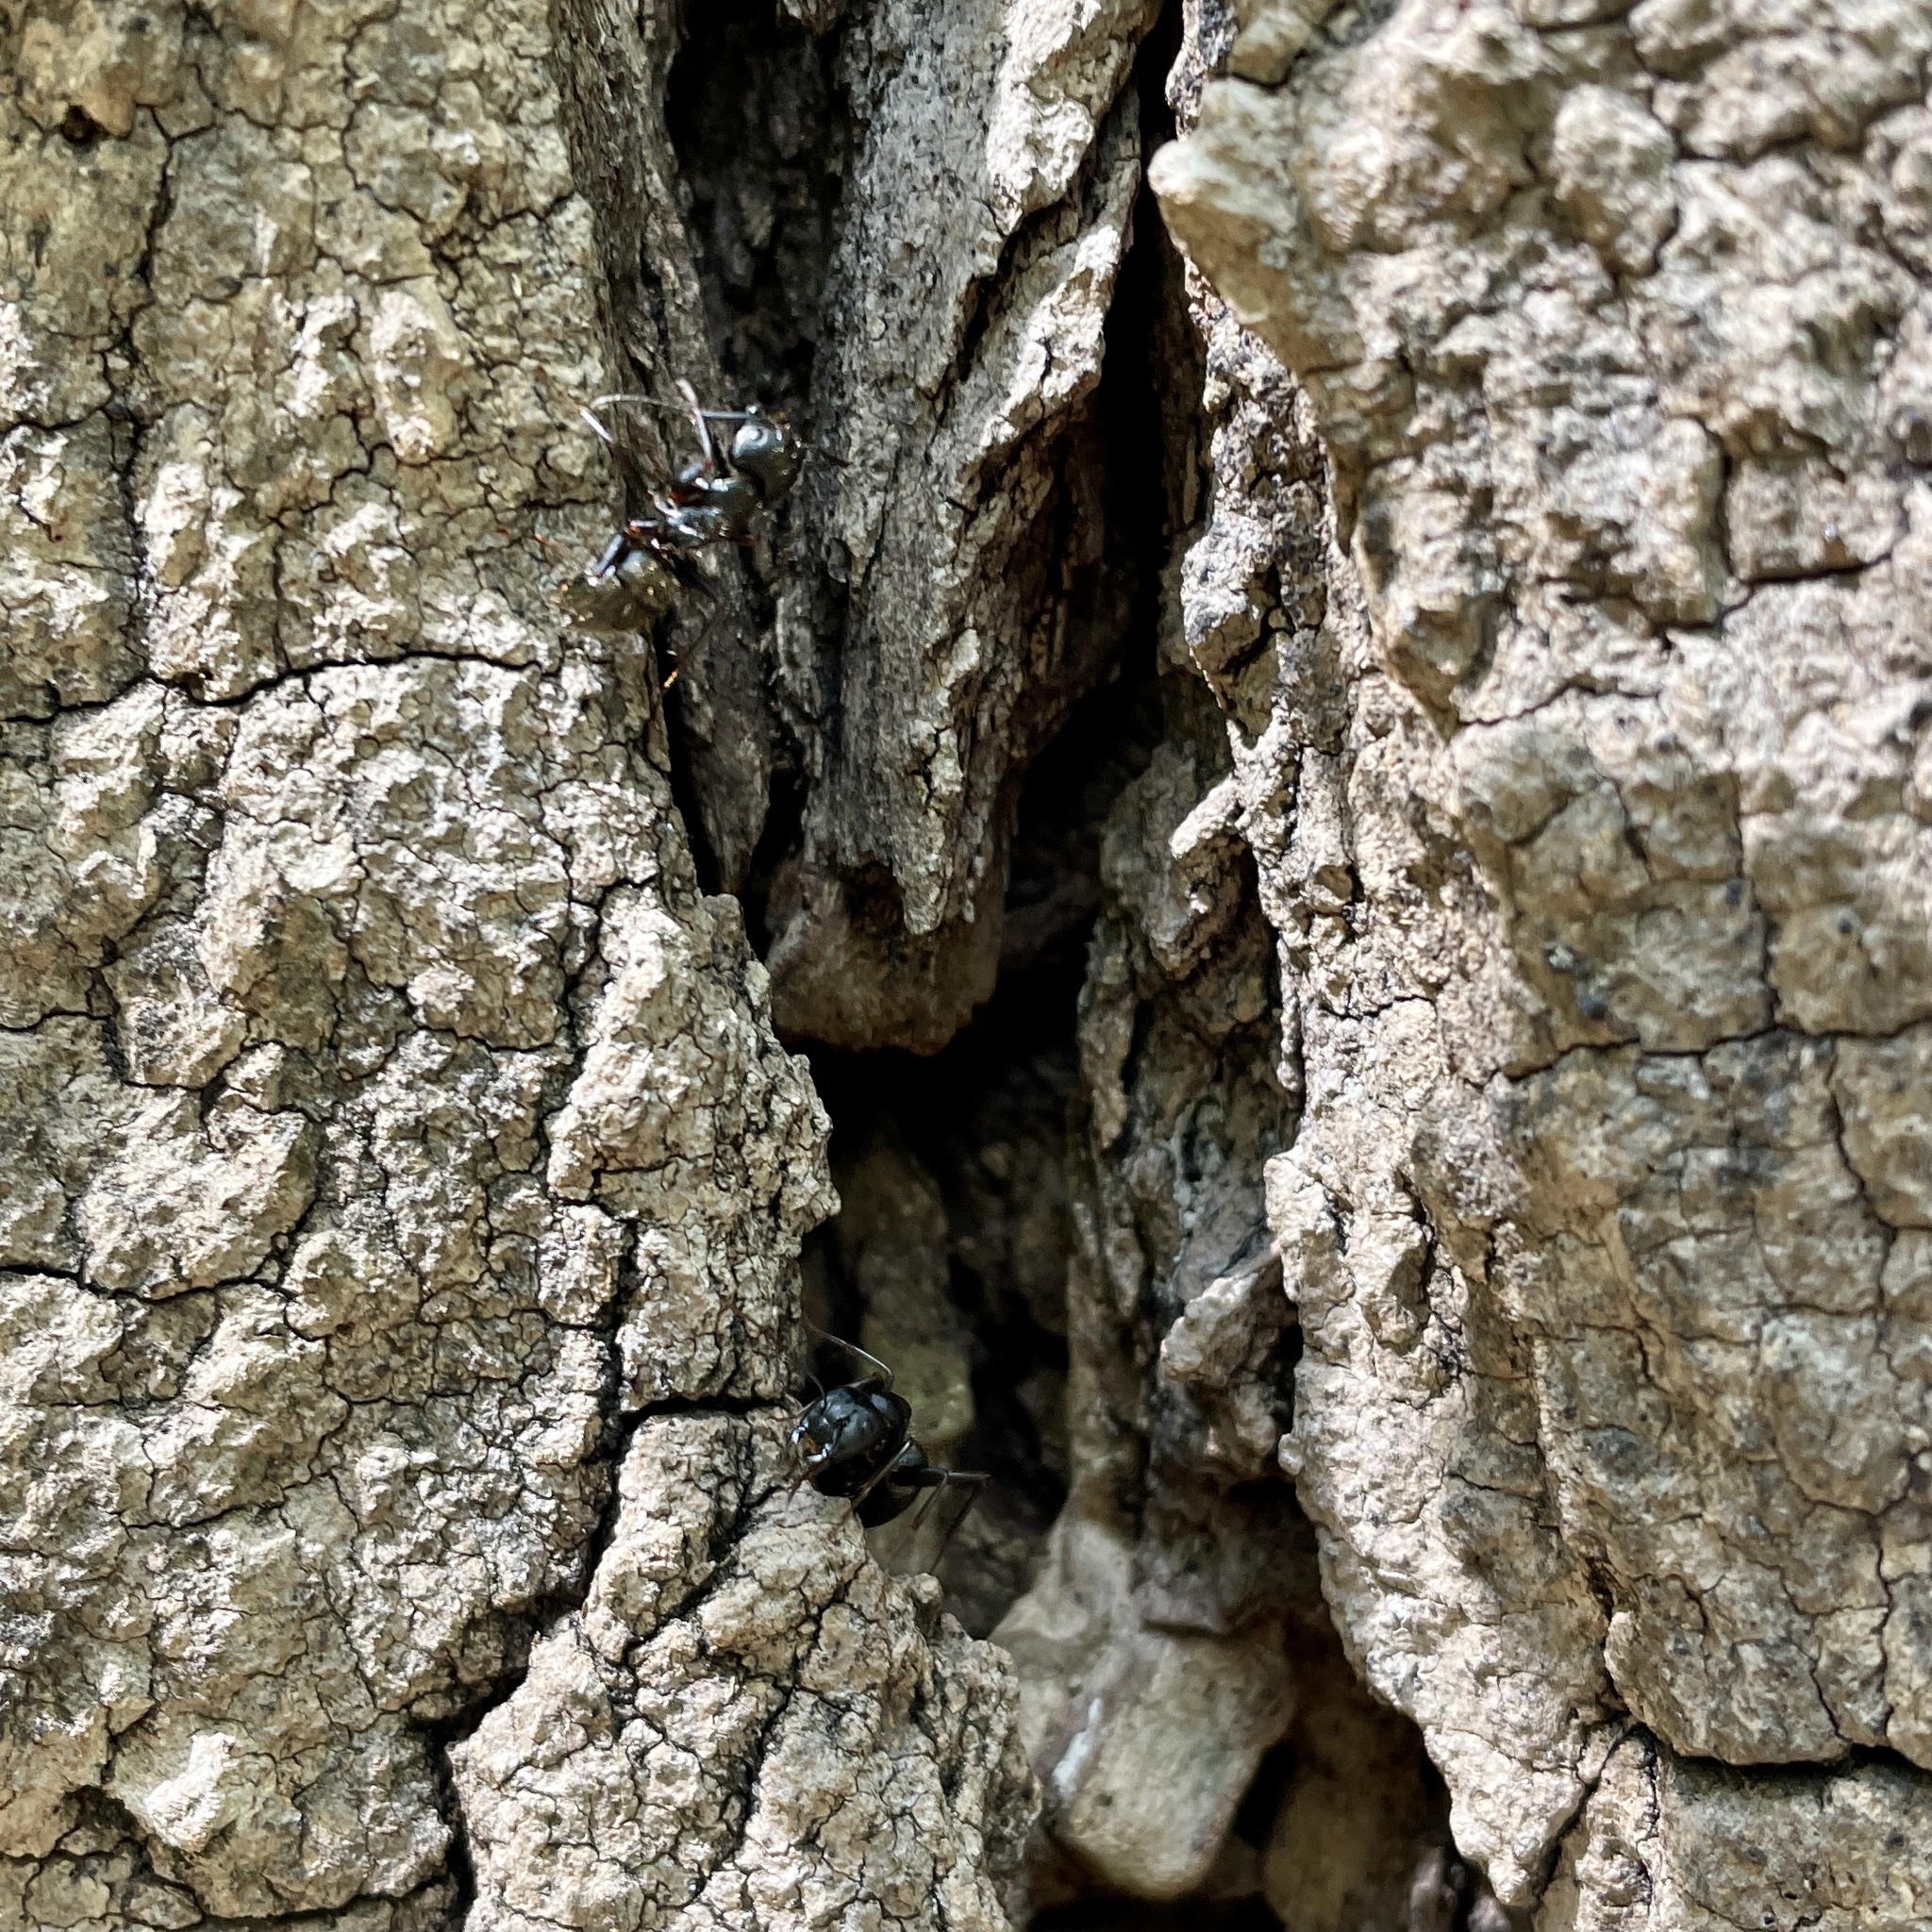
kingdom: Animalia
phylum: Arthropoda
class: Insecta
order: Hymenoptera
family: Formicidae
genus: Camponotus
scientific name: Camponotus pennsylvanicus
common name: Black carpenter ant
